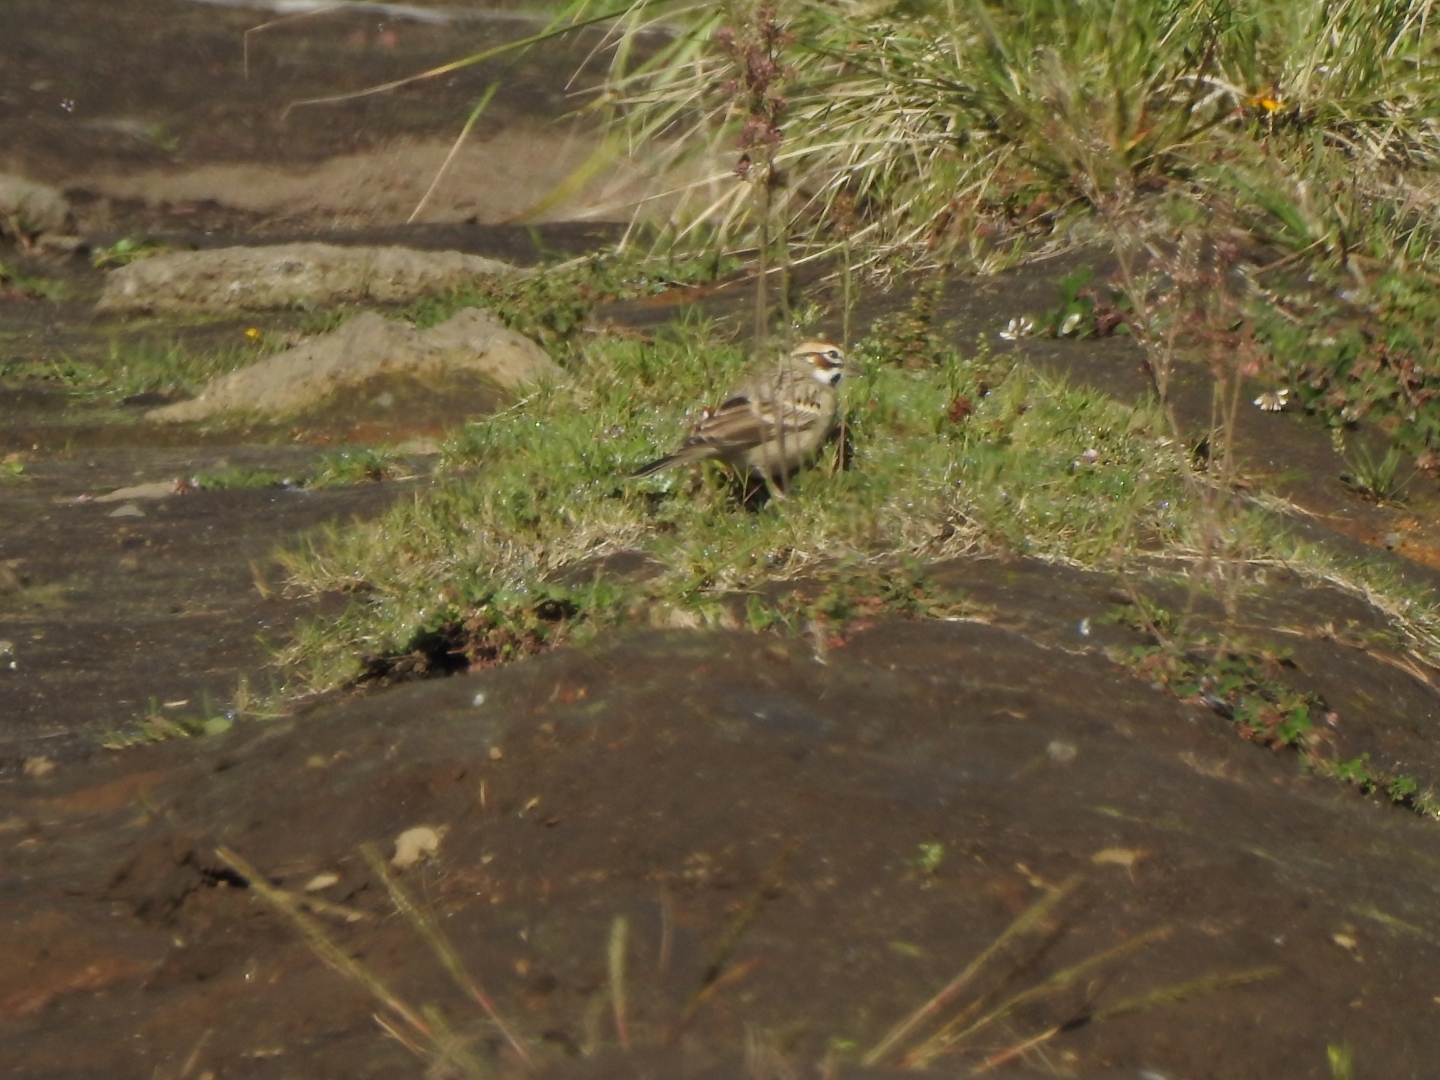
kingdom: Animalia
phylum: Chordata
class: Aves
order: Passeriformes
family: Passerellidae
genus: Chondestes
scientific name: Chondestes grammacus
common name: Lark sparrow
